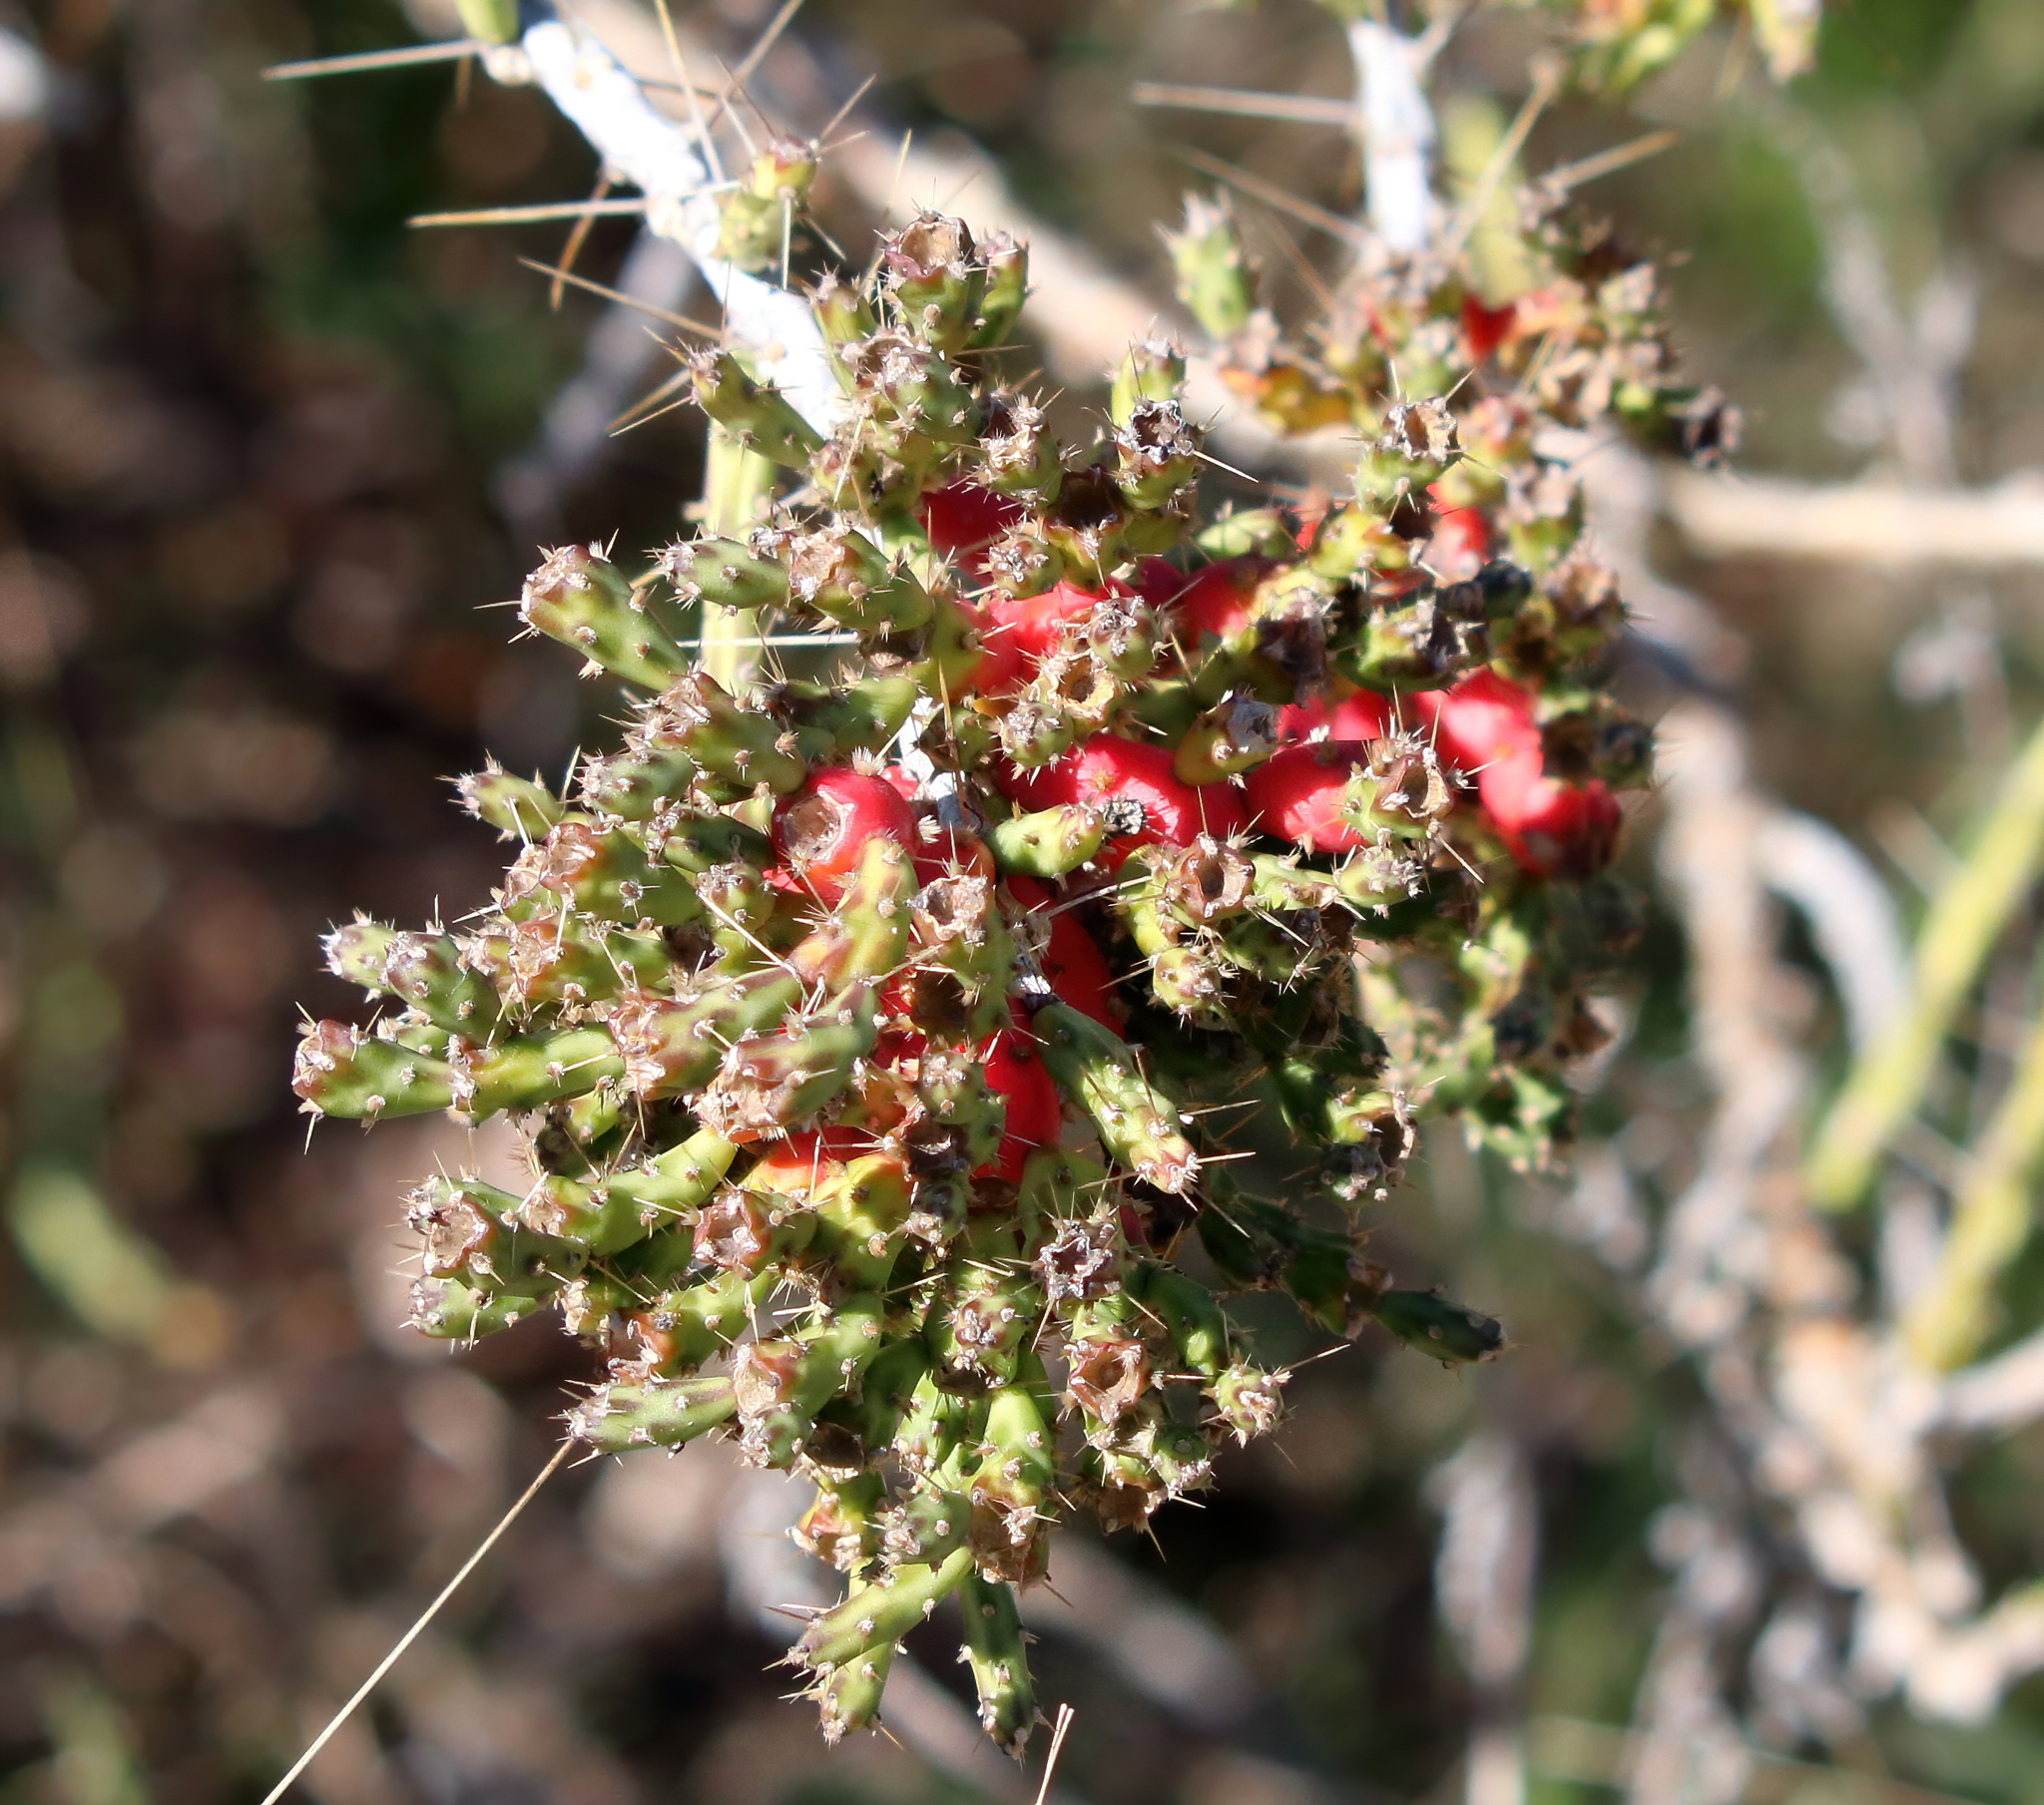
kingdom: Plantae
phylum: Tracheophyta
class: Magnoliopsida
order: Caryophyllales
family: Cactaceae
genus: Cylindropuntia
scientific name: Cylindropuntia leptocaulis
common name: Christmas cactus
